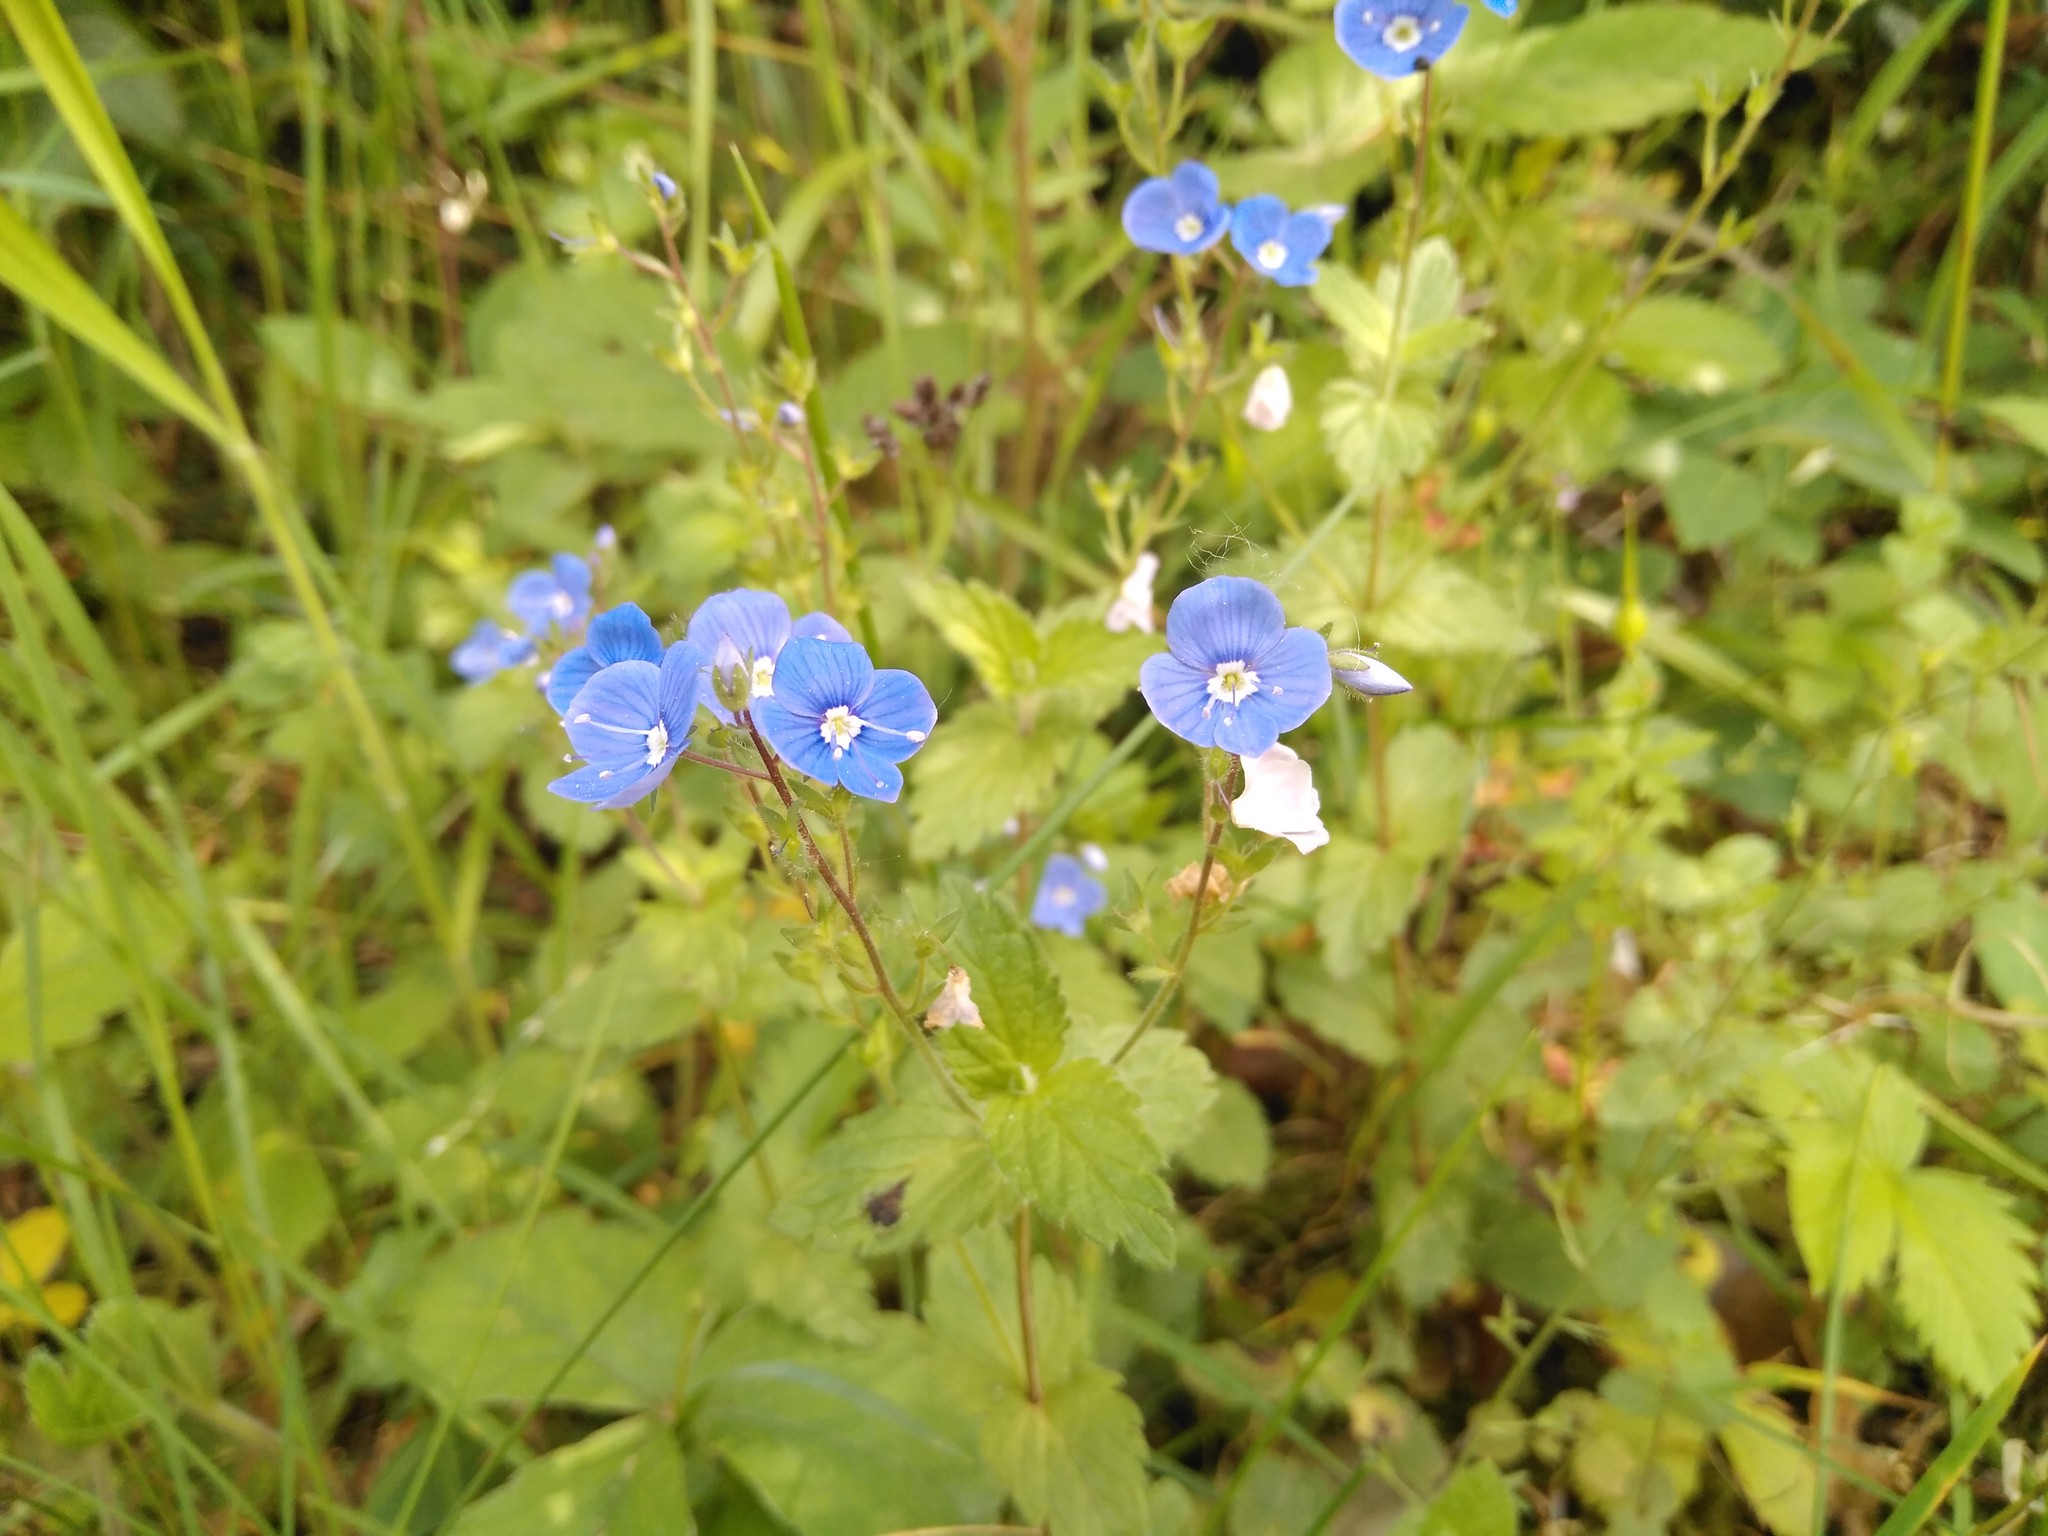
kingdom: Plantae
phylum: Tracheophyta
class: Magnoliopsida
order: Lamiales
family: Plantaginaceae
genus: Veronica
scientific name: Veronica chamaedrys
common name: Germander speedwell
